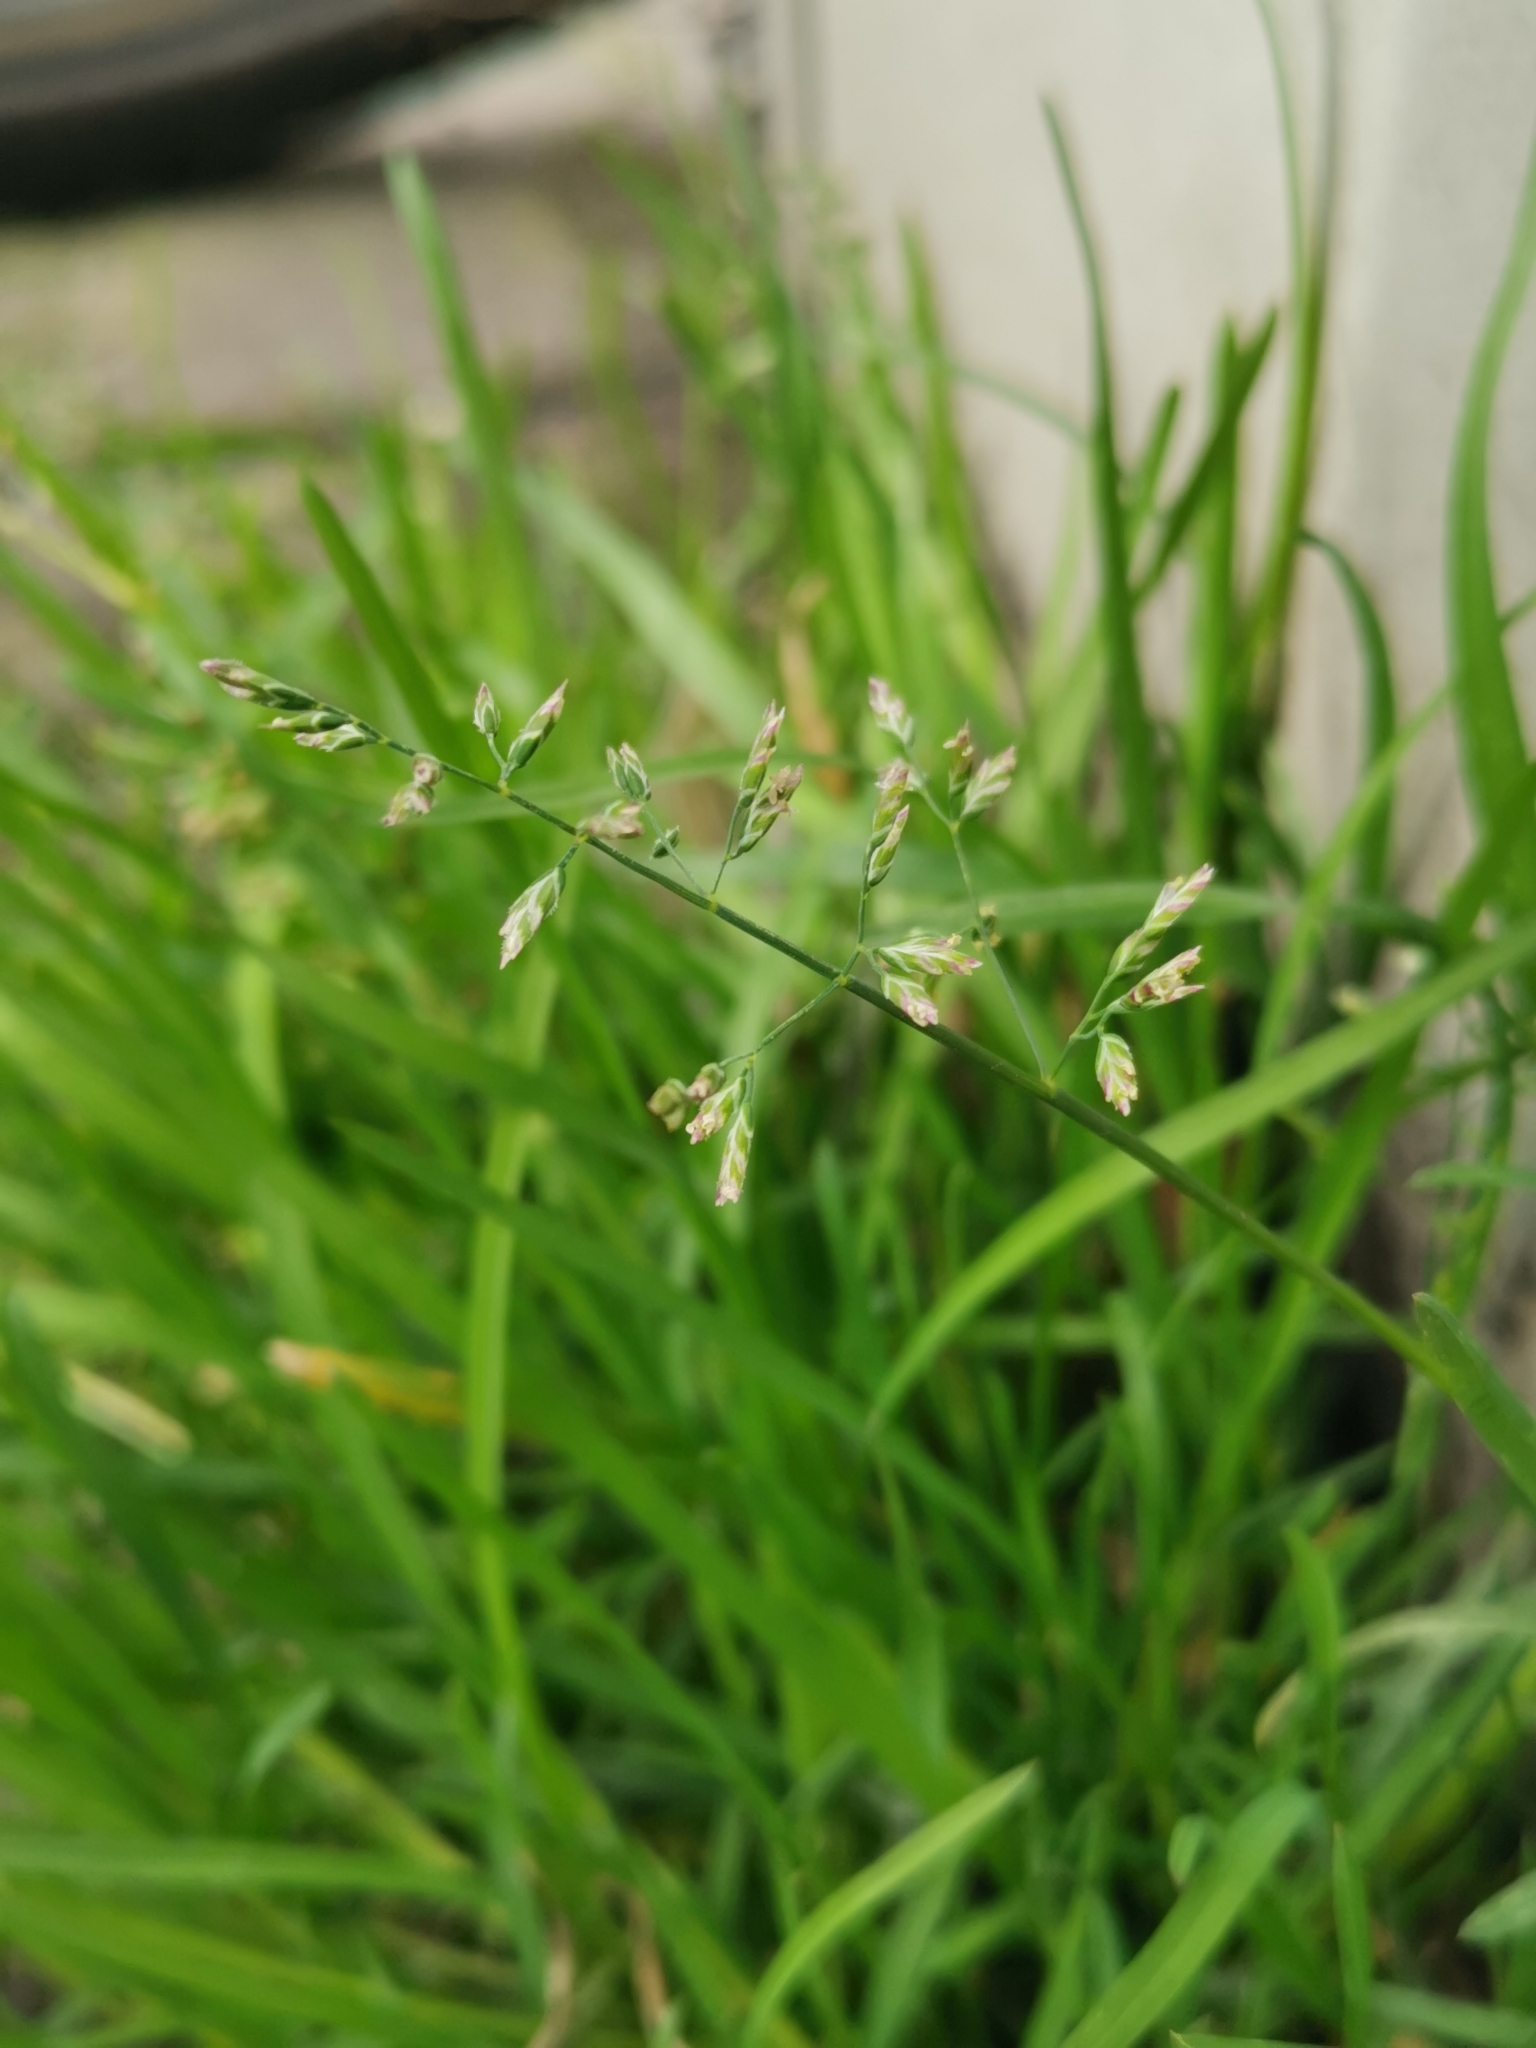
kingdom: Plantae
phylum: Tracheophyta
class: Liliopsida
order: Poales
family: Poaceae
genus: Poa
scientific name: Poa annua
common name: Annual bluegrass
